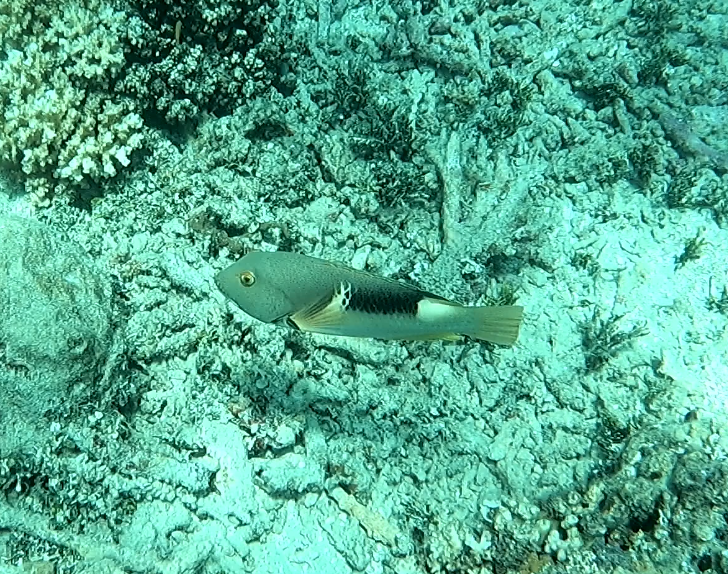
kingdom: Animalia
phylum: Chordata
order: Perciformes
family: Labridae
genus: Choerodon
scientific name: Choerodon anchorago
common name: Anchor tuskfish
